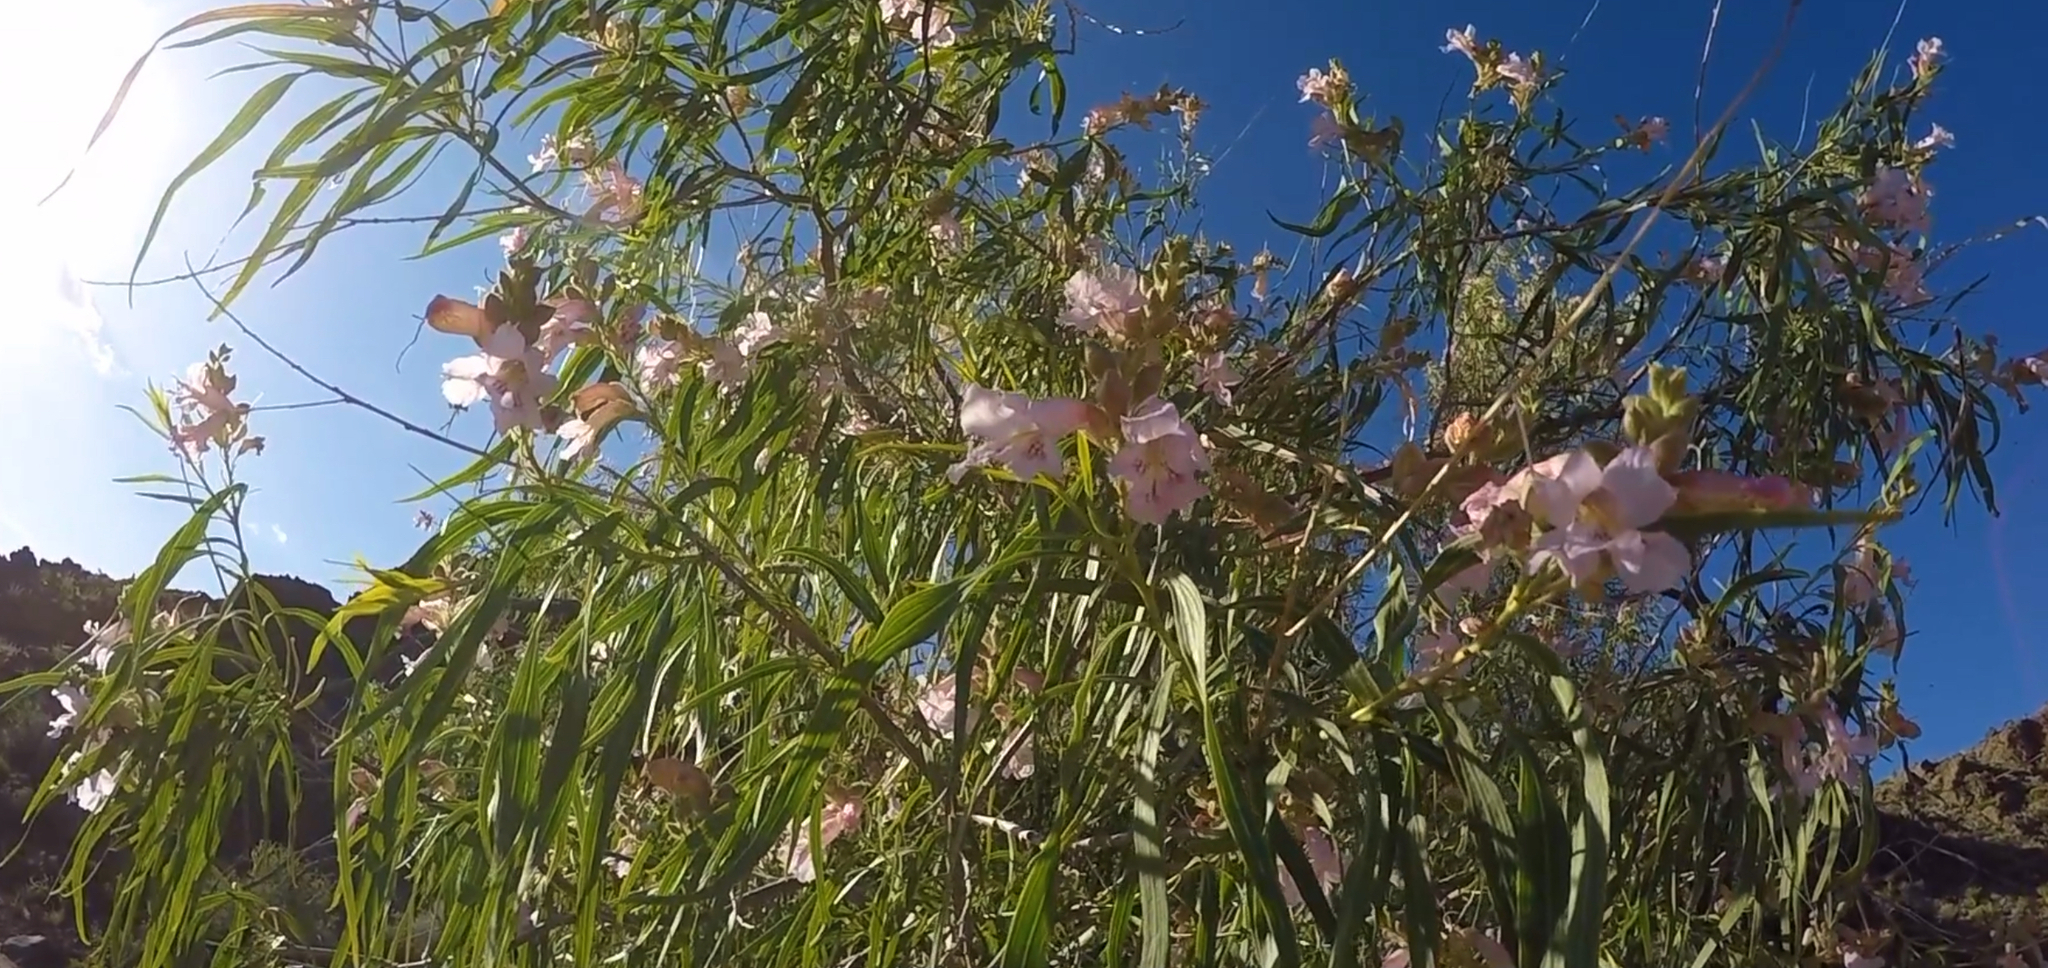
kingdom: Plantae
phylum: Tracheophyta
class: Magnoliopsida
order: Lamiales
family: Bignoniaceae
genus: Chilopsis
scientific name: Chilopsis linearis
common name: Desert-willow
